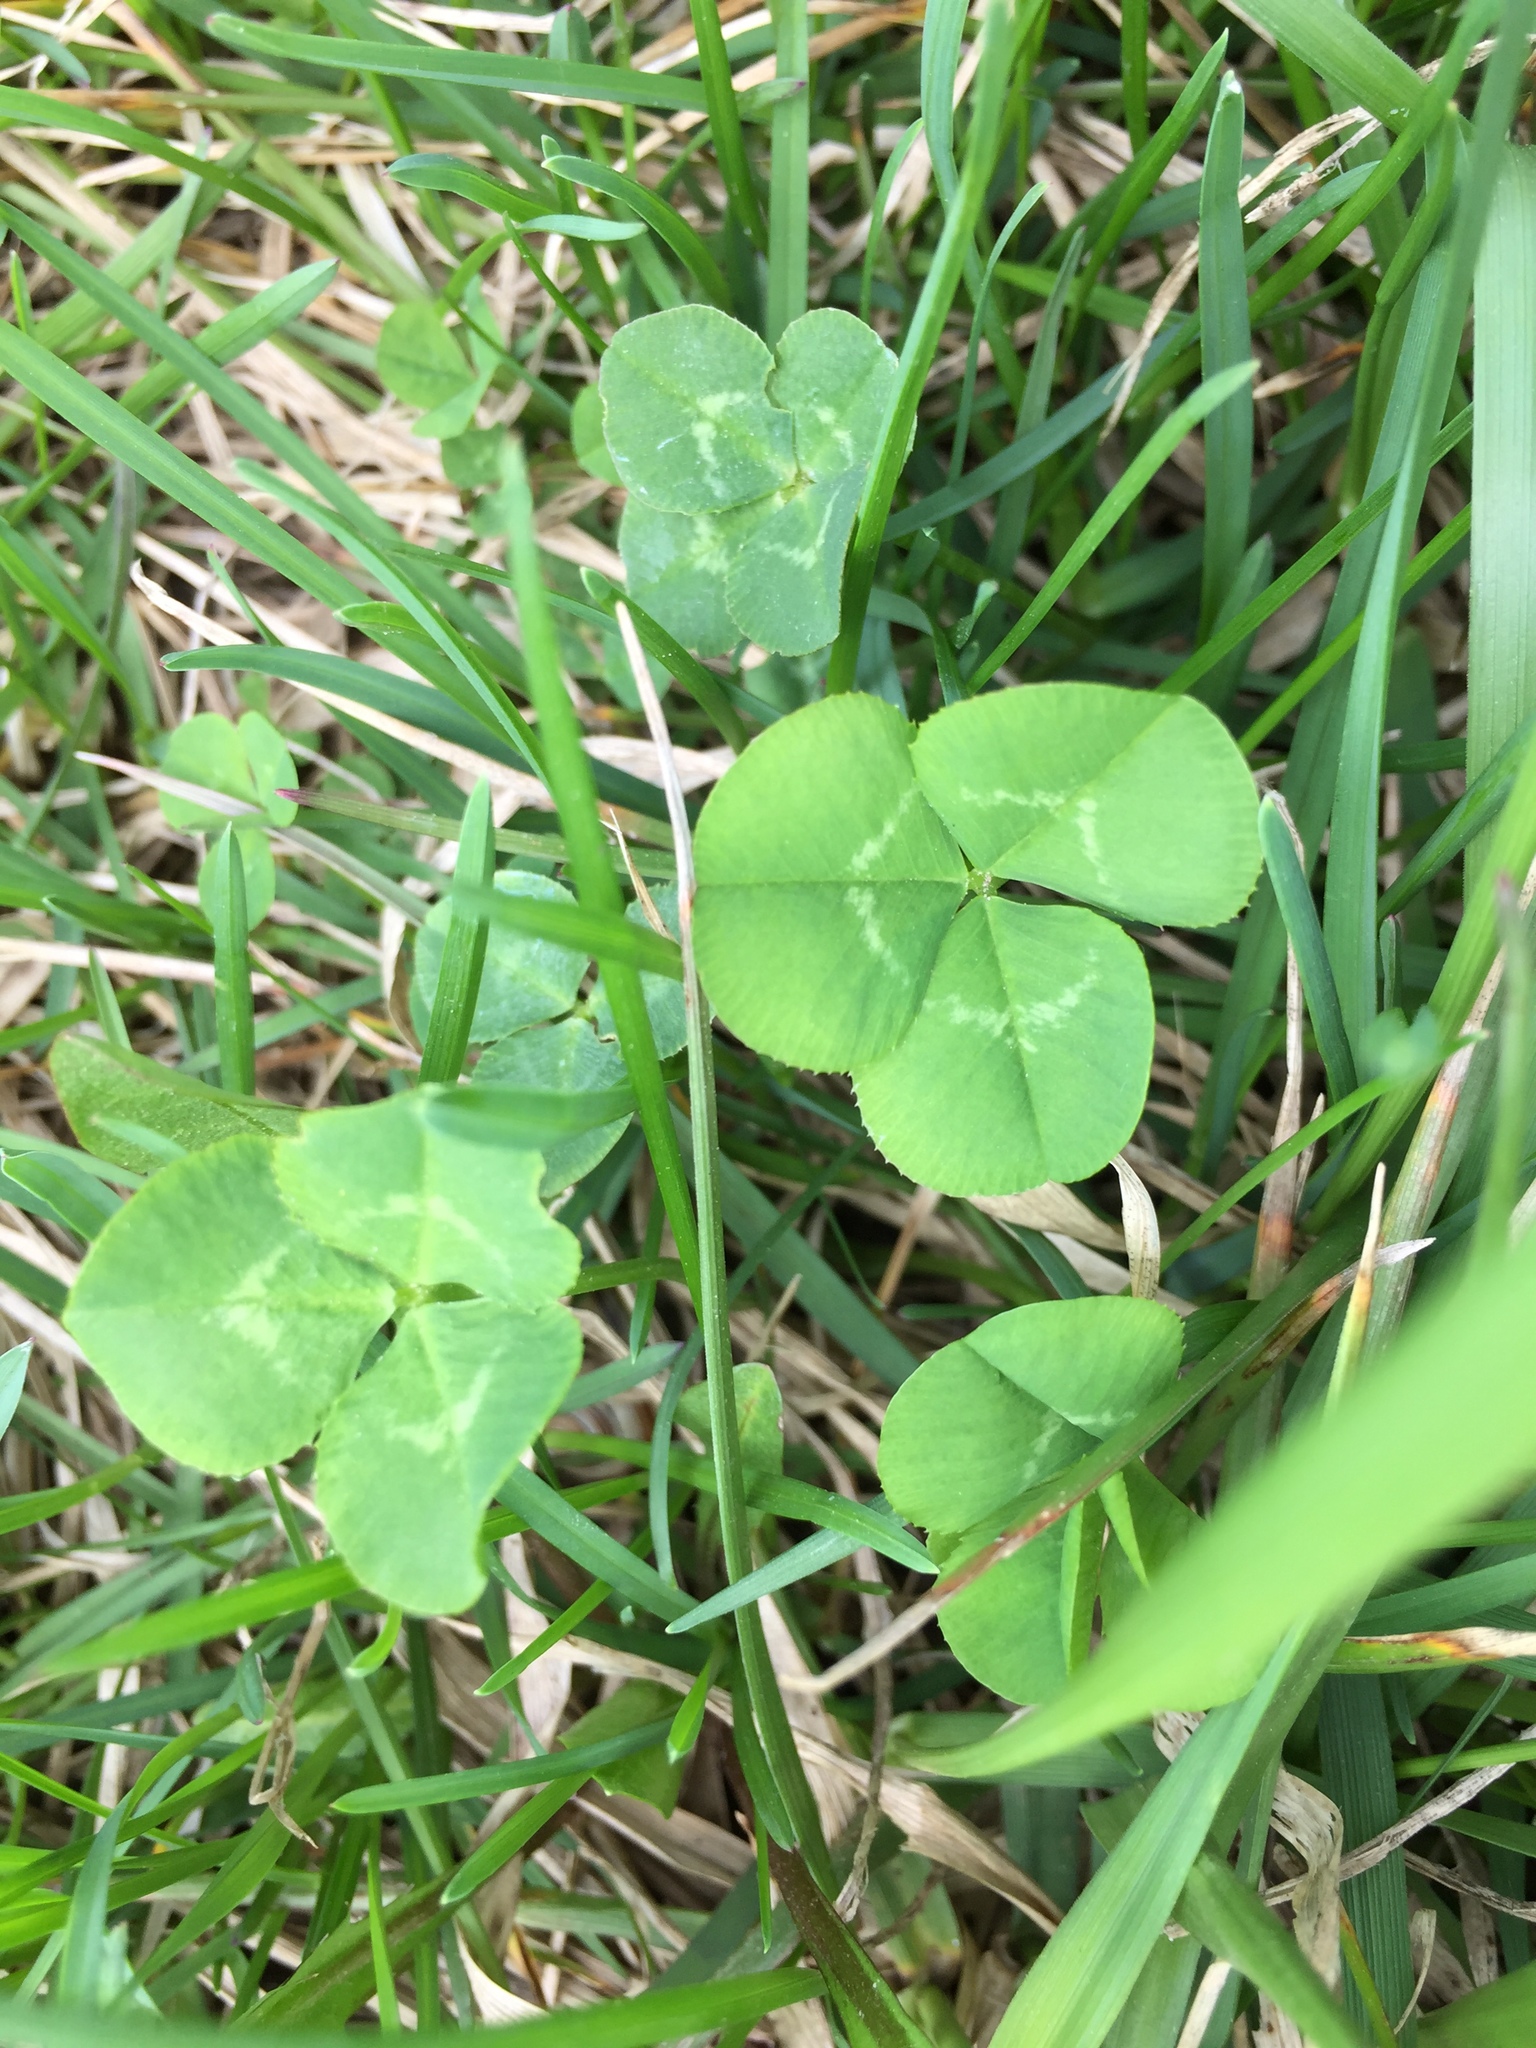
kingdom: Plantae
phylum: Tracheophyta
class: Magnoliopsida
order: Fabales
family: Fabaceae
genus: Trifolium
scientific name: Trifolium repens
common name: White clover
